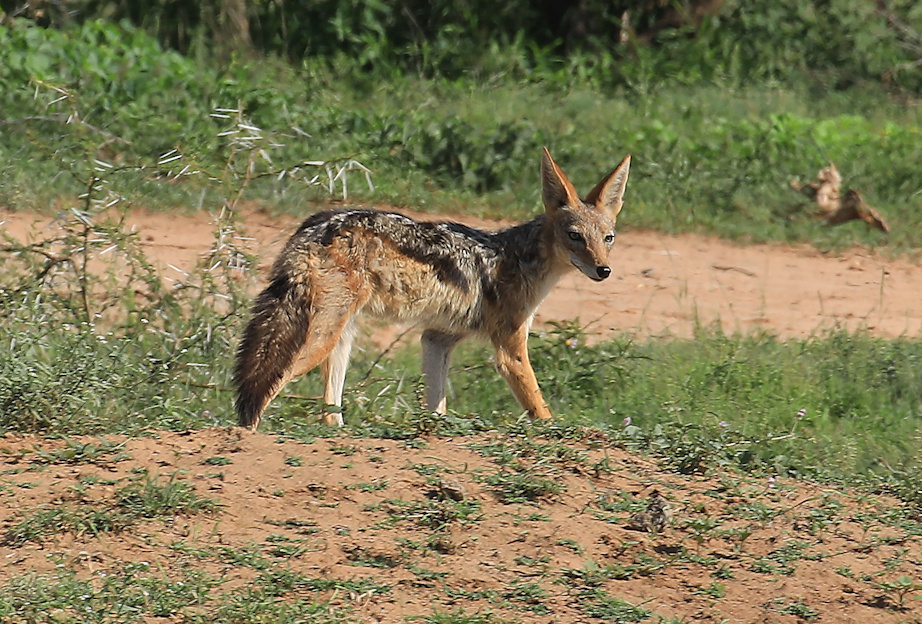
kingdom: Animalia
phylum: Chordata
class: Mammalia
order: Carnivora
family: Canidae
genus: Lupulella
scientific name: Lupulella
